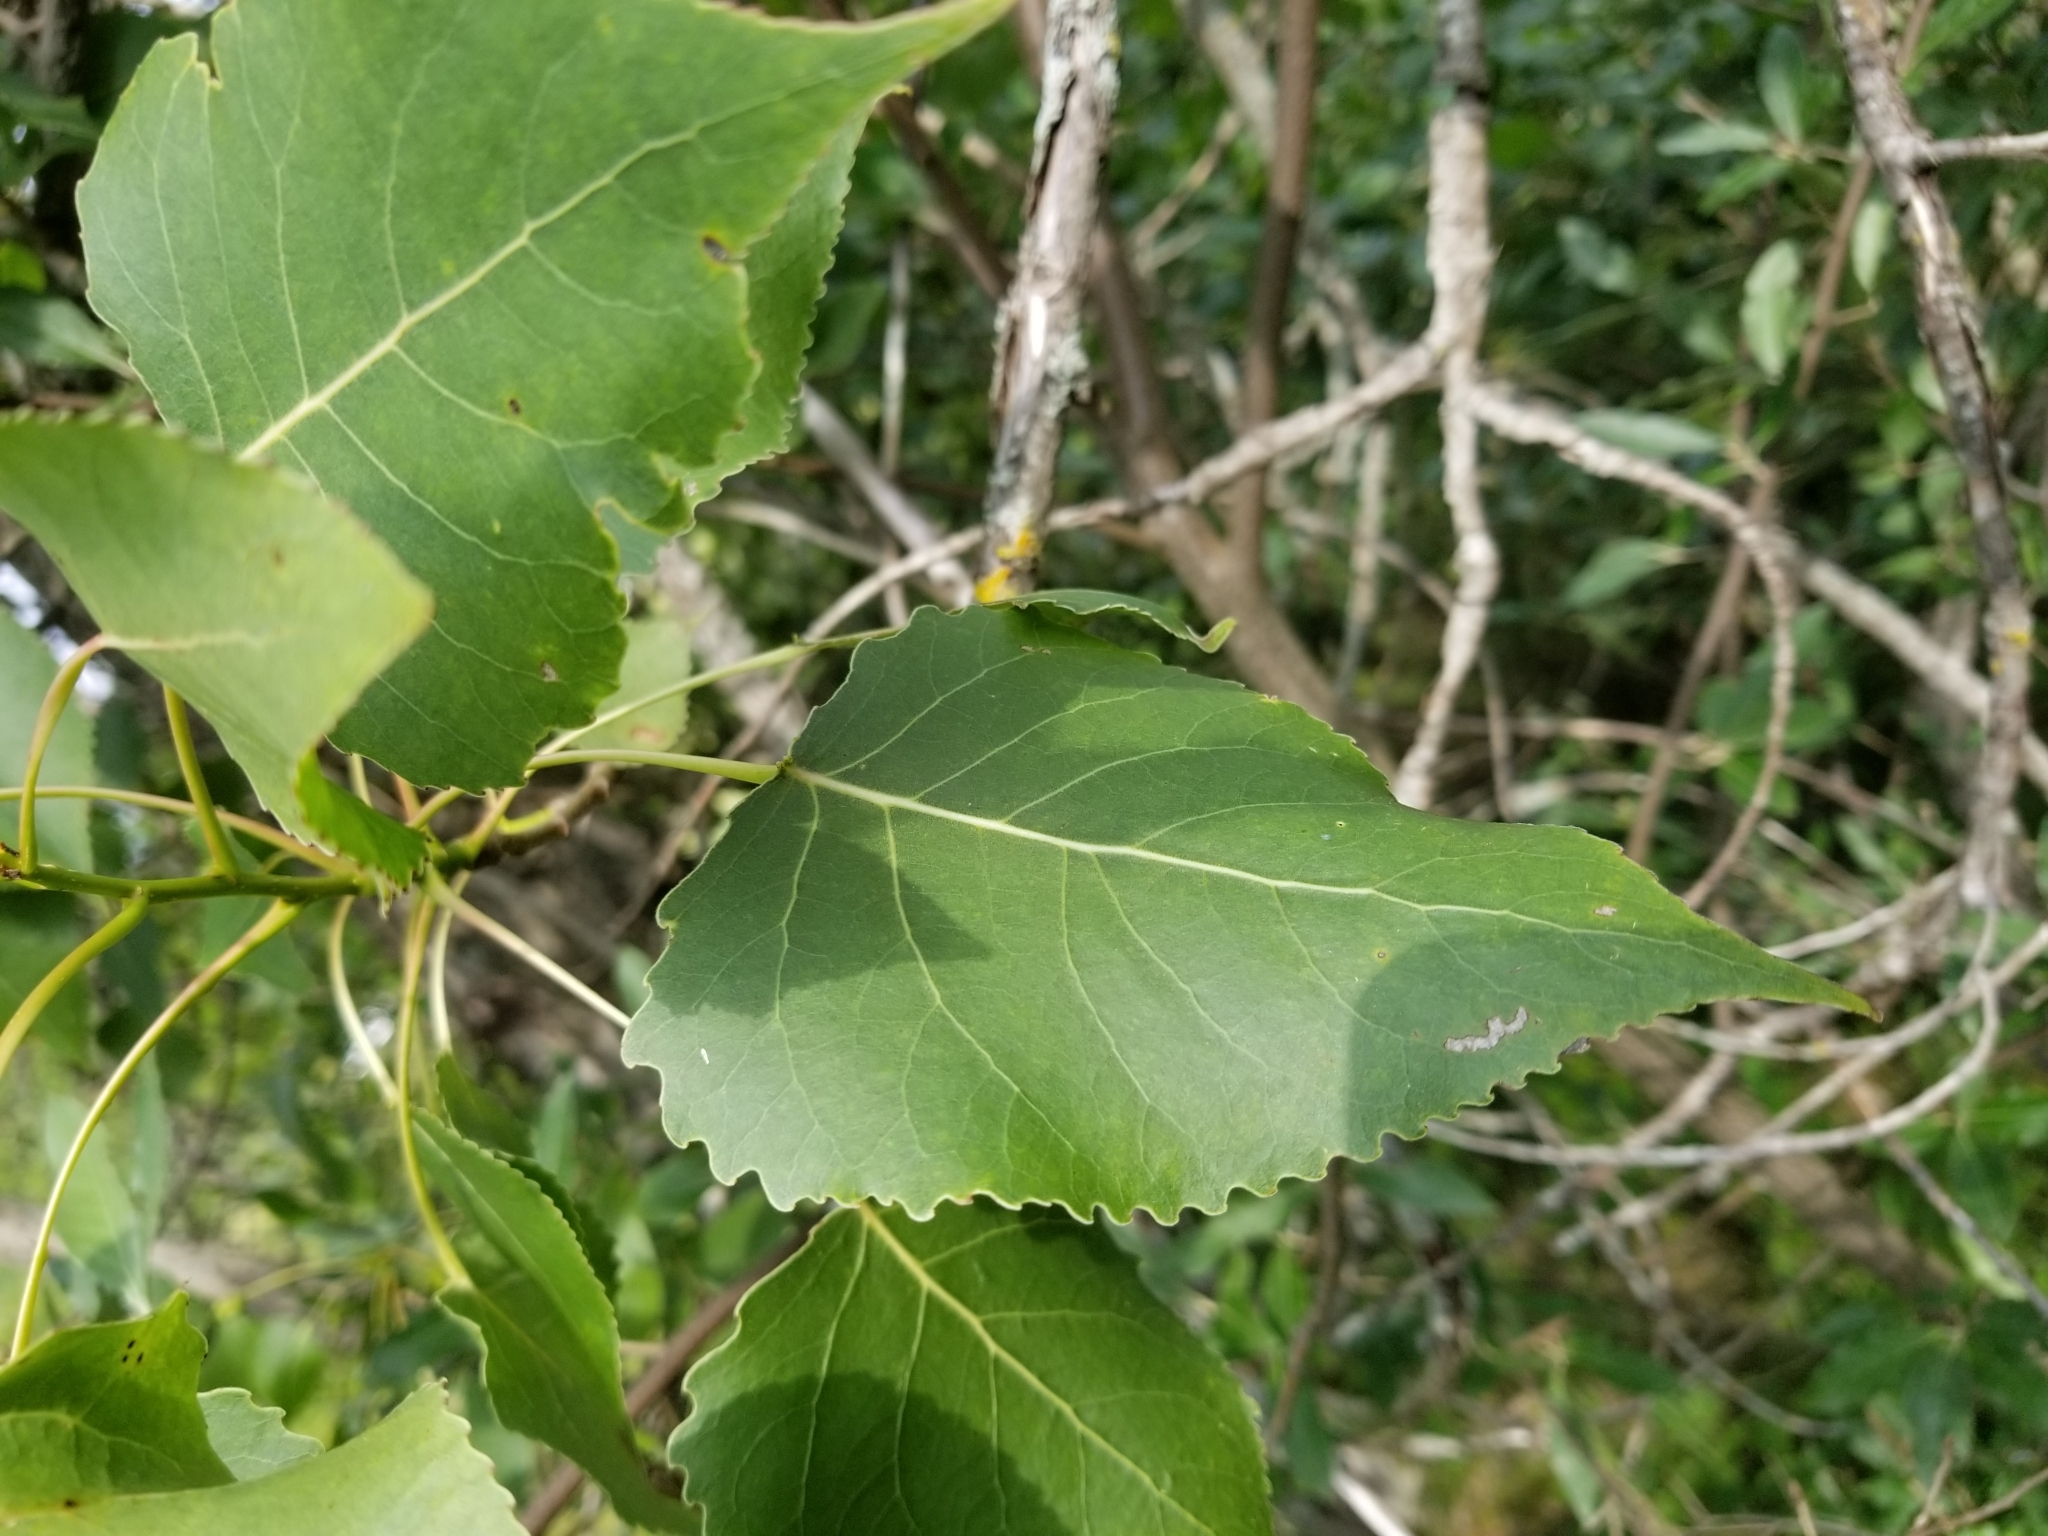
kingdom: Plantae
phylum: Tracheophyta
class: Magnoliopsida
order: Malpighiales
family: Salicaceae
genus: Populus
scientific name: Populus grandidentata
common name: Bigtooth aspen
